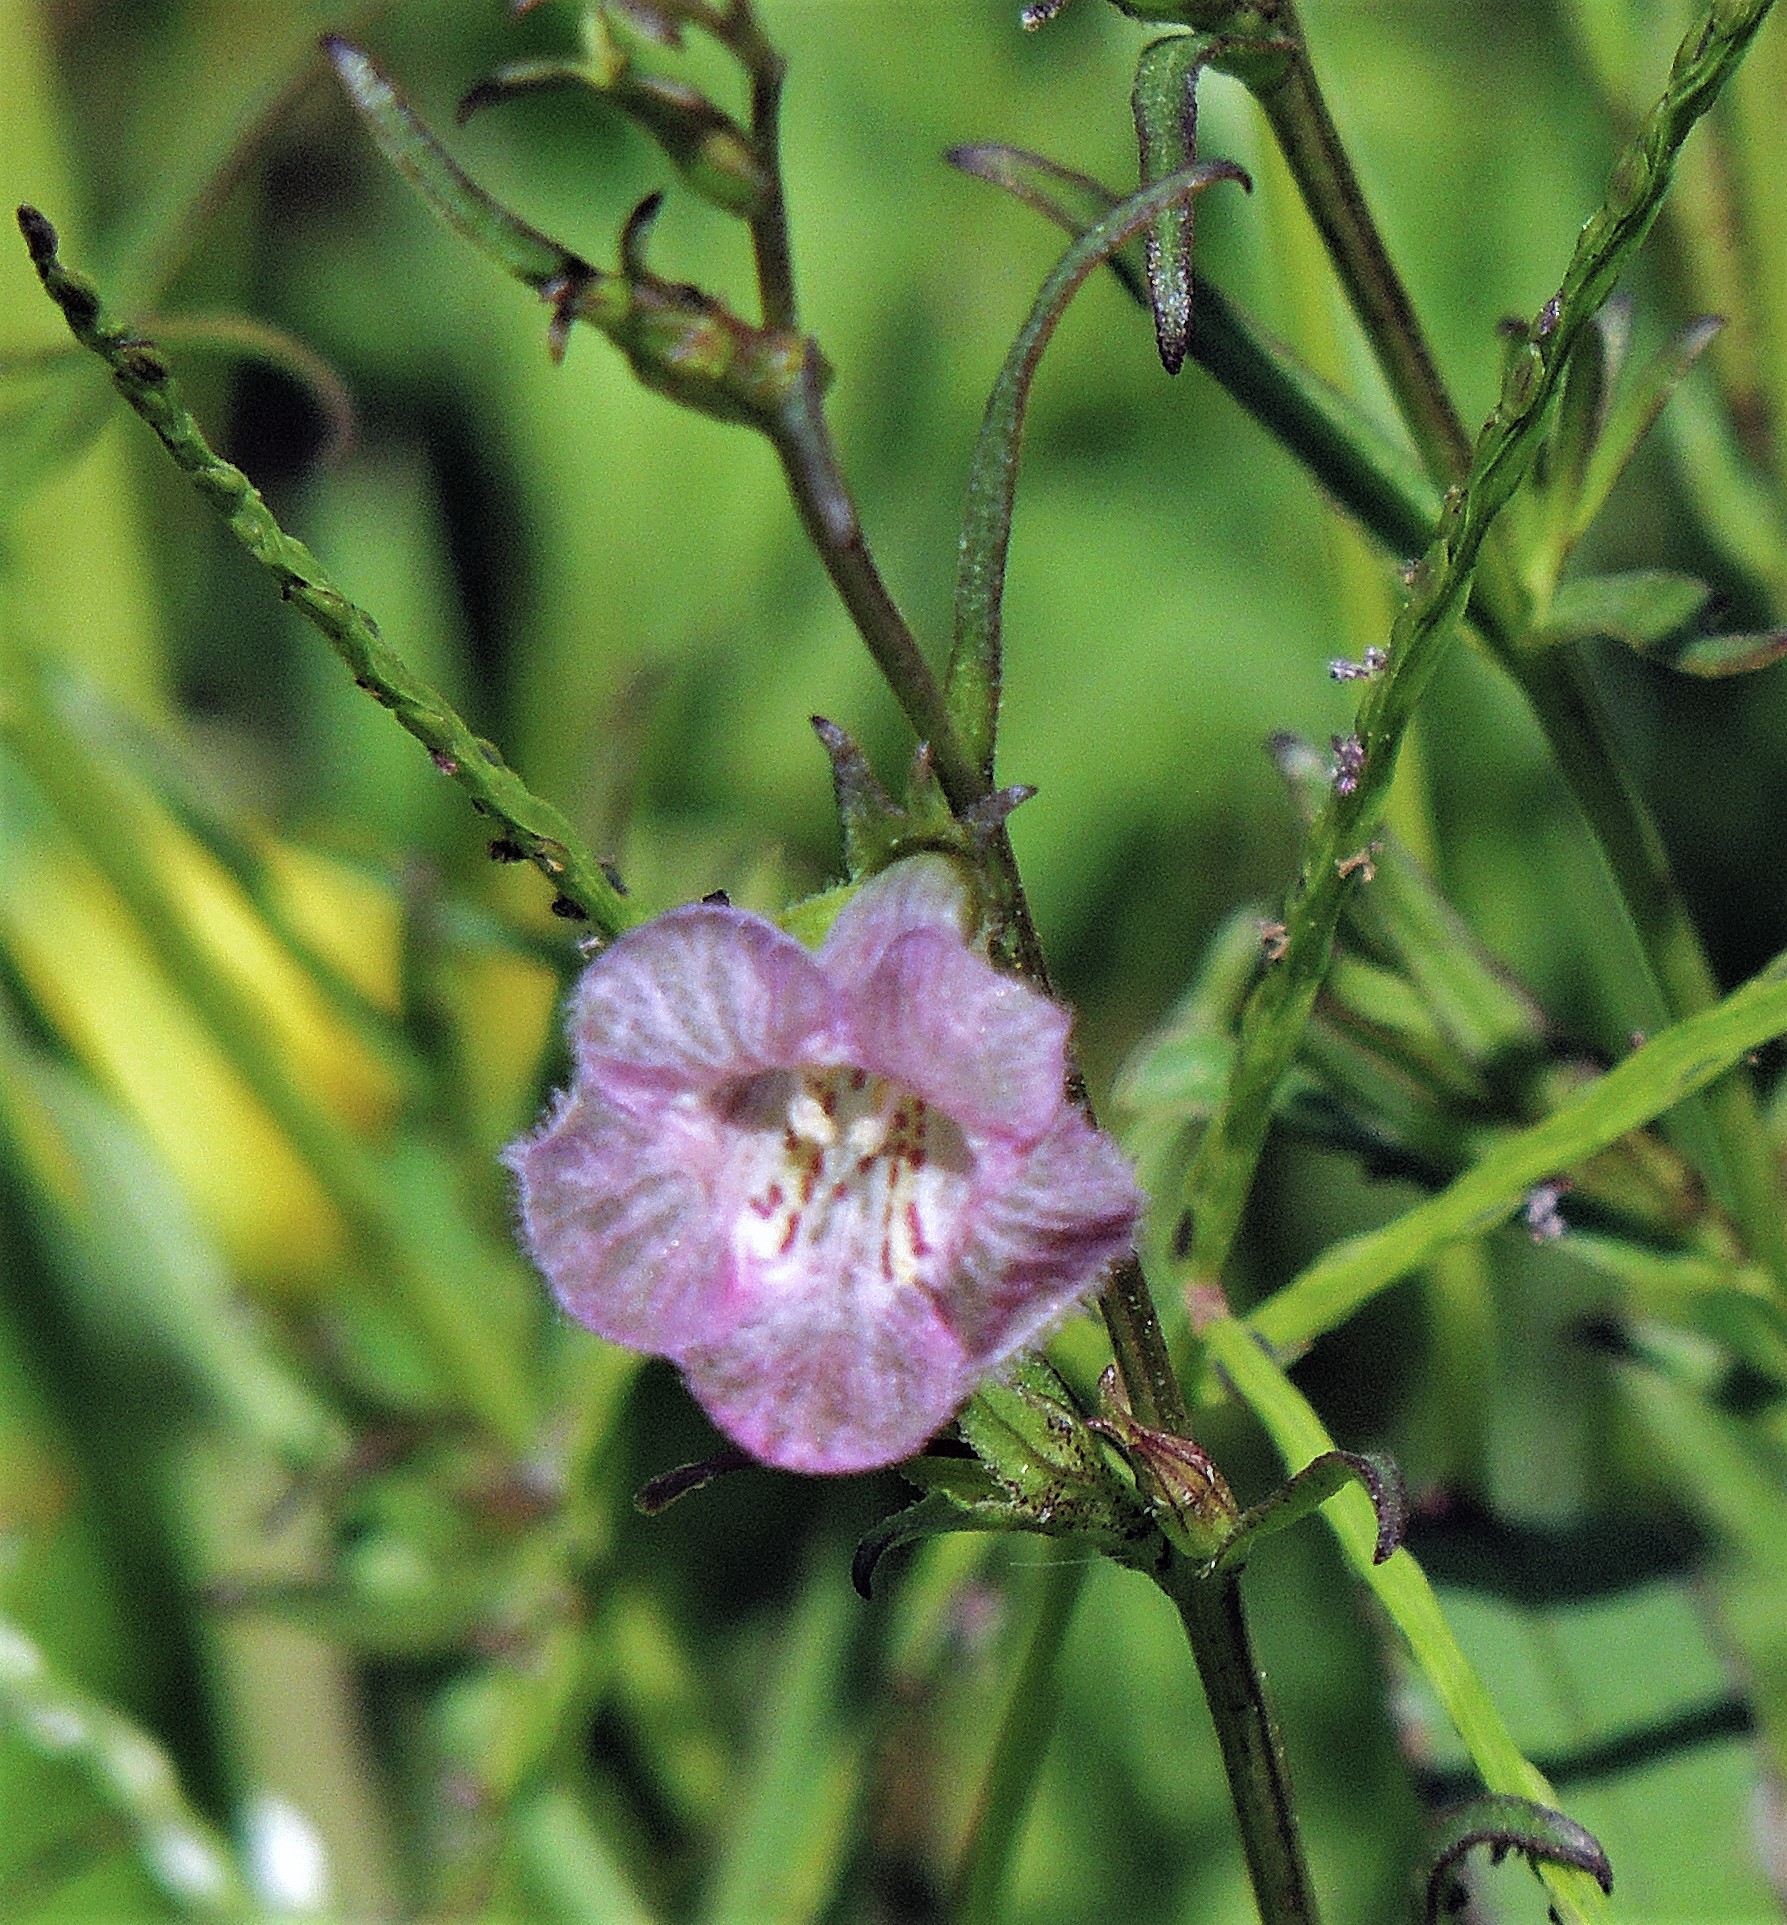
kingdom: Plantae
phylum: Tracheophyta
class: Magnoliopsida
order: Lamiales
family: Orobanchaceae
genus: Agalinis
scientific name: Agalinis communis
